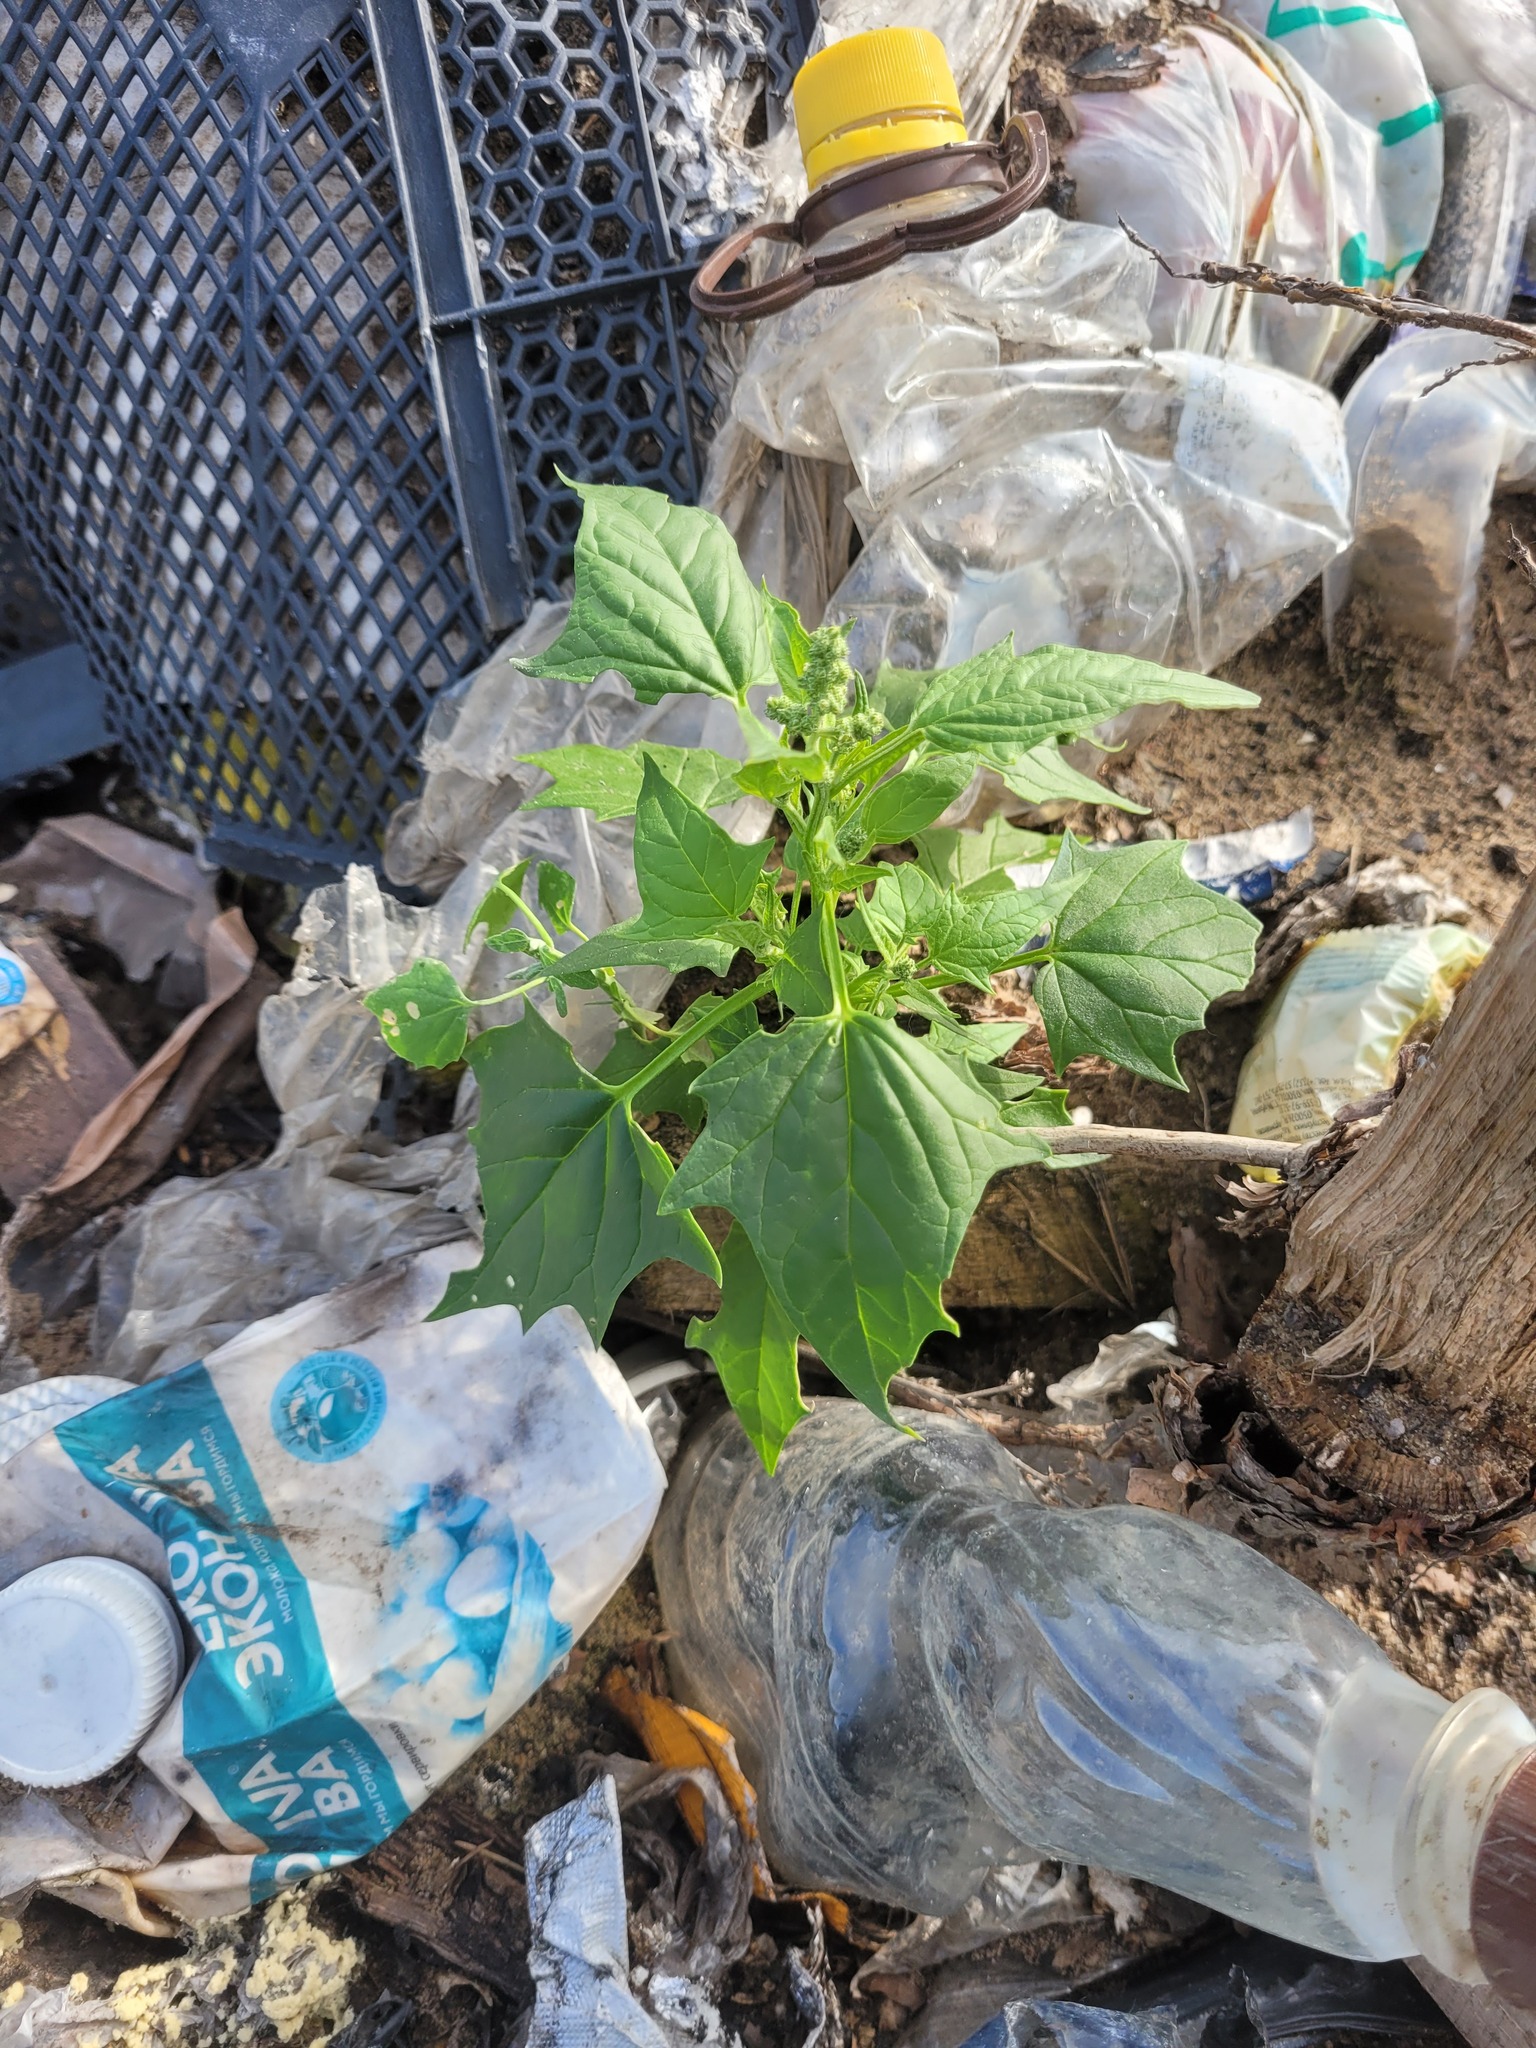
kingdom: Plantae
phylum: Tracheophyta
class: Magnoliopsida
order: Caryophyllales
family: Amaranthaceae
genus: Chenopodiastrum
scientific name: Chenopodiastrum hybridum
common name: Mapleleaf goosefoot
